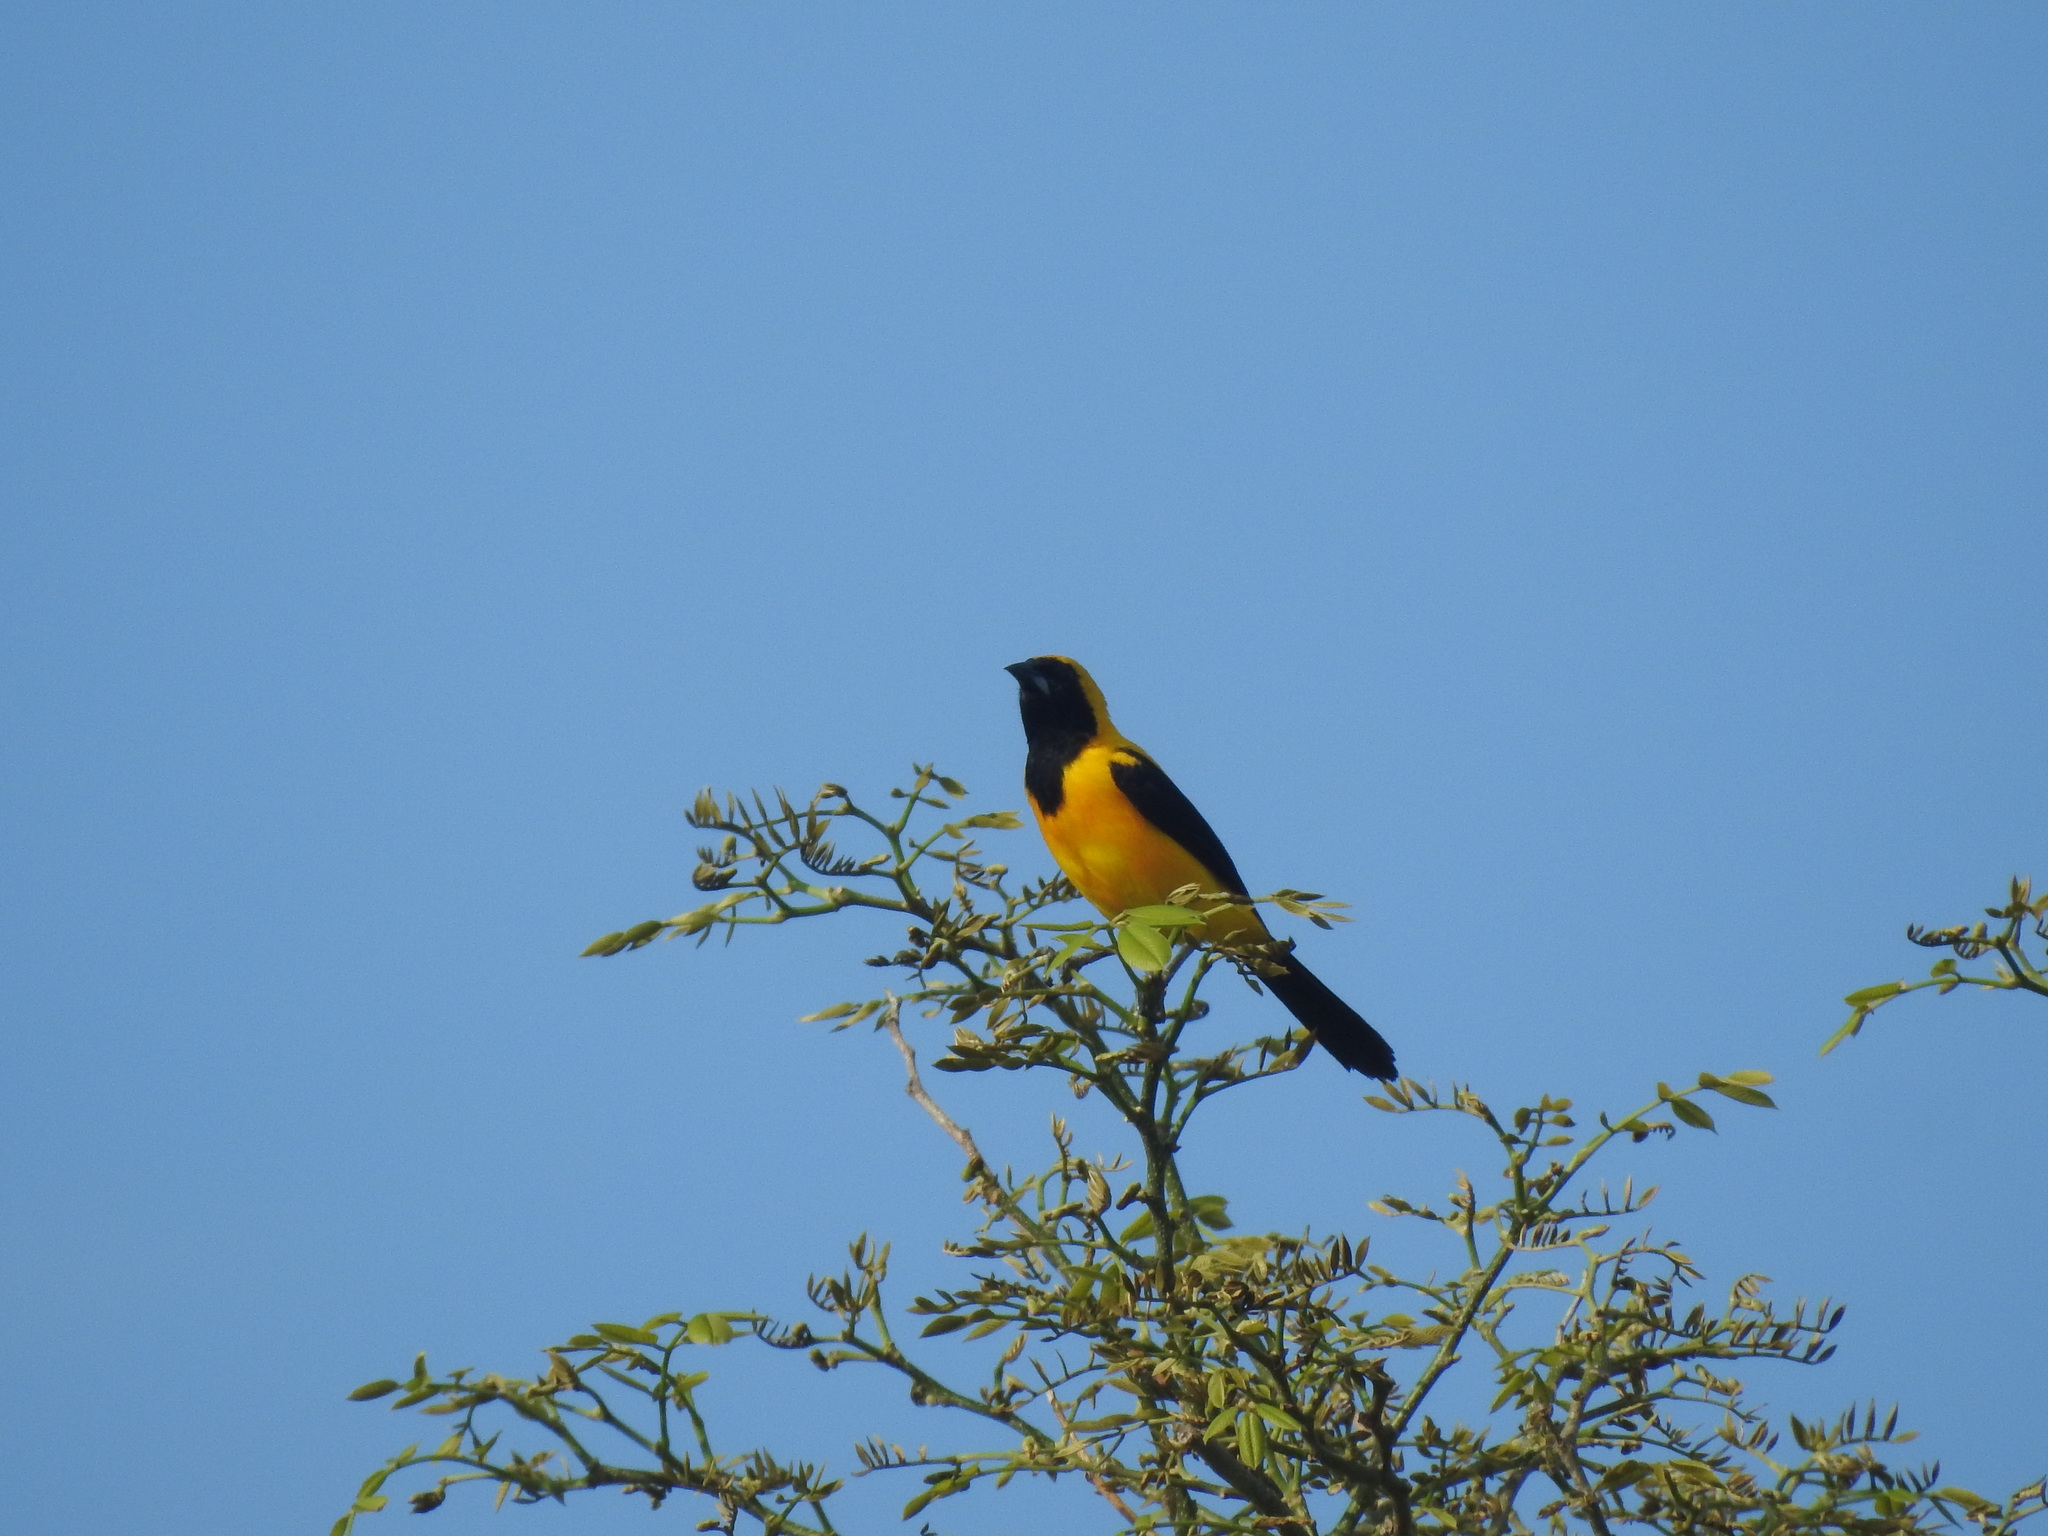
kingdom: Animalia
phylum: Chordata
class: Aves
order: Passeriformes
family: Icteridae
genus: Icterus
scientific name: Icterus chrysater
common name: Yellow-backed oriole
